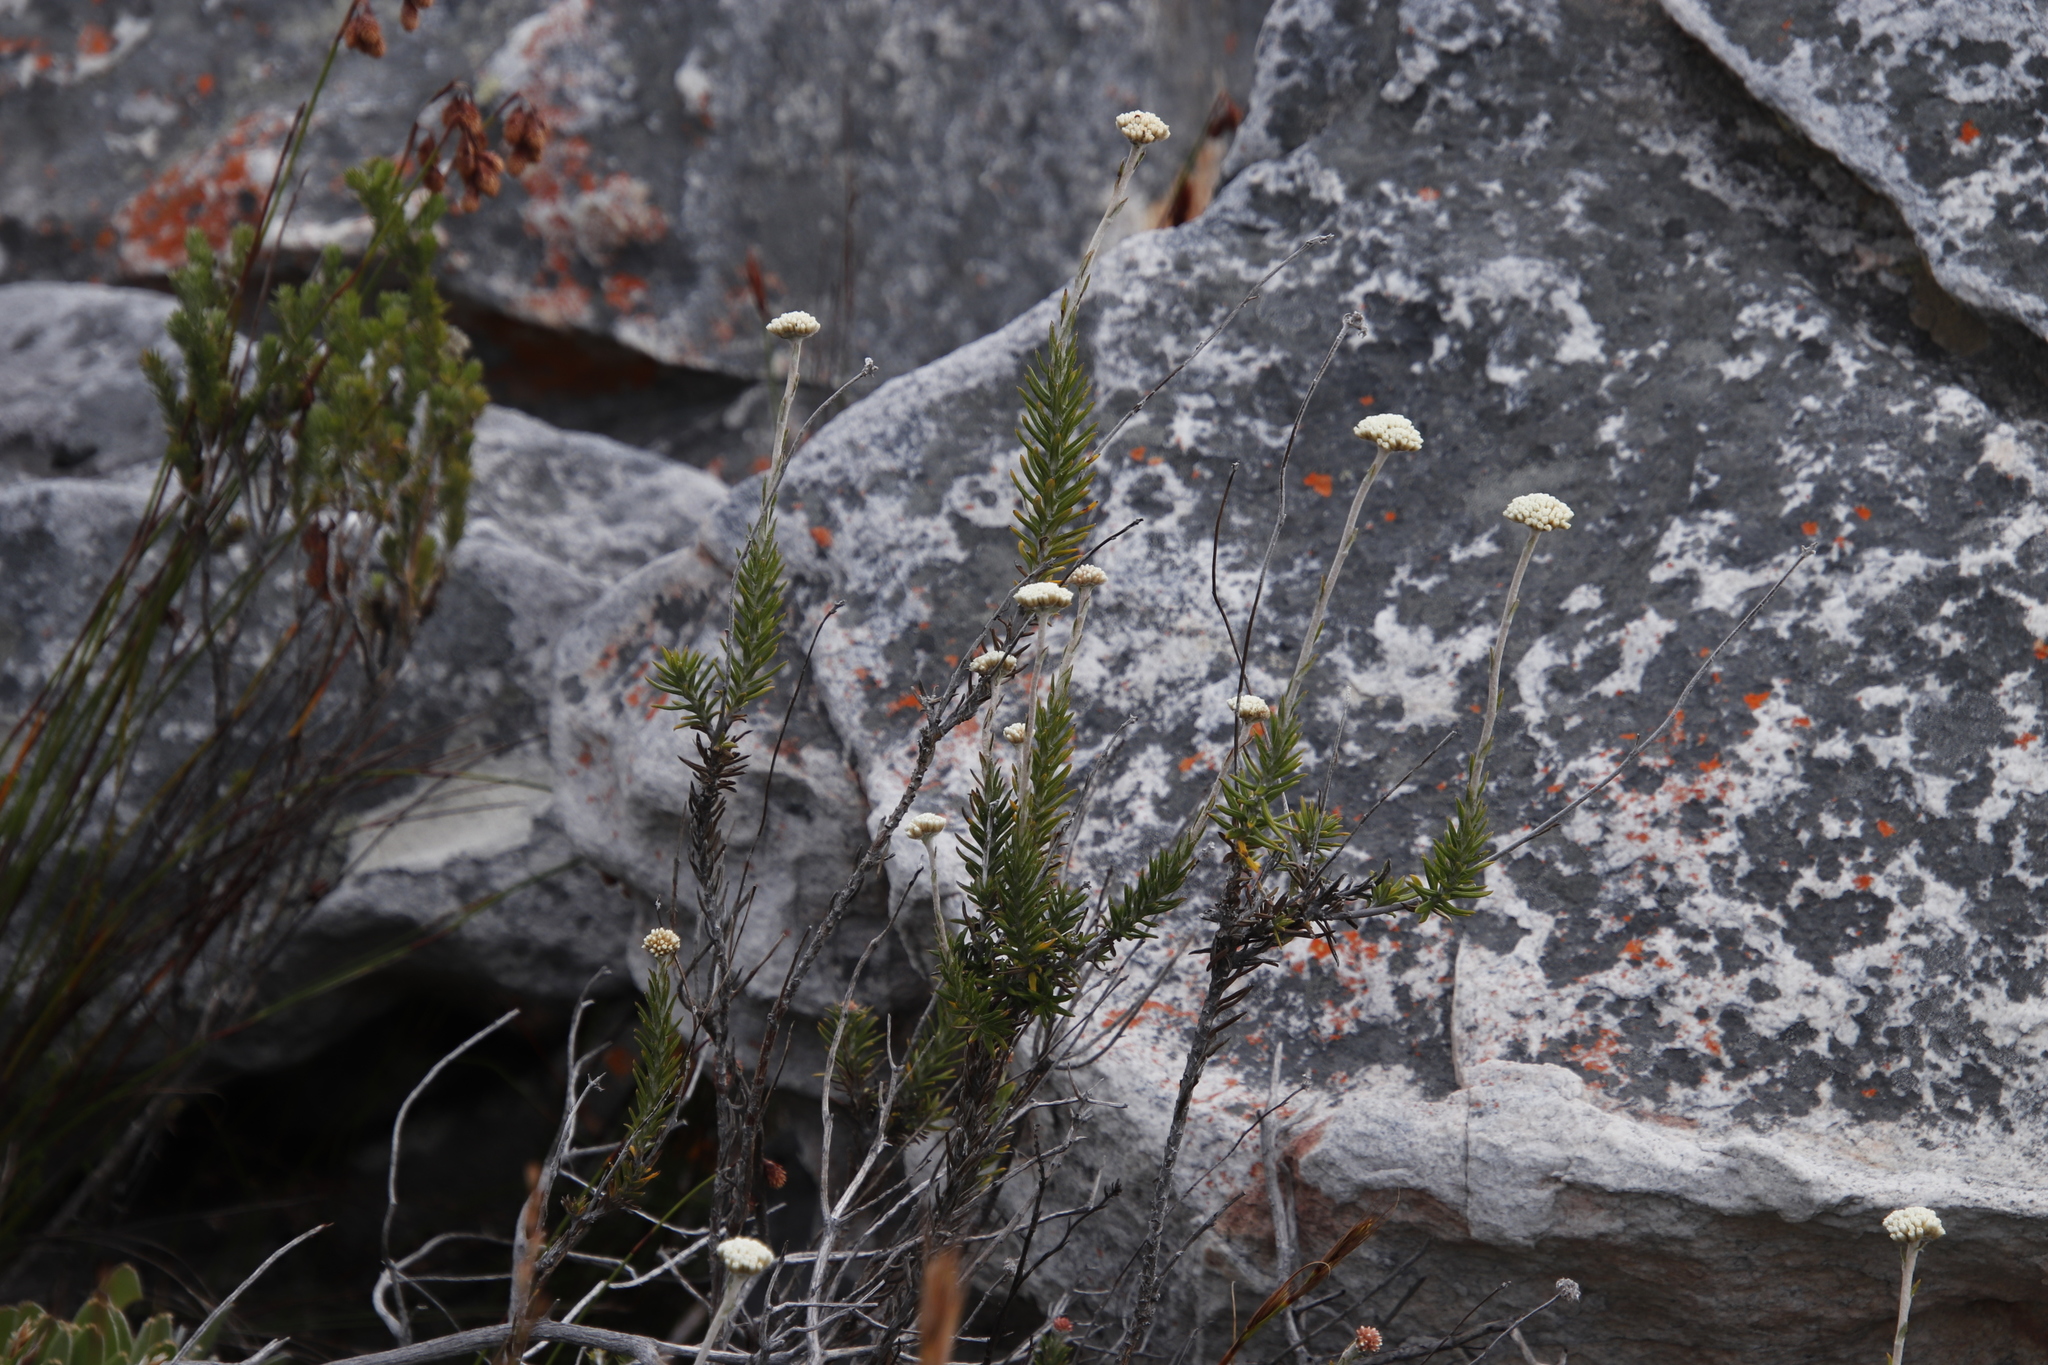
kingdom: Plantae
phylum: Tracheophyta
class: Magnoliopsida
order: Asterales
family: Asteraceae
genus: Anaxeton
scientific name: Anaxeton laeve
